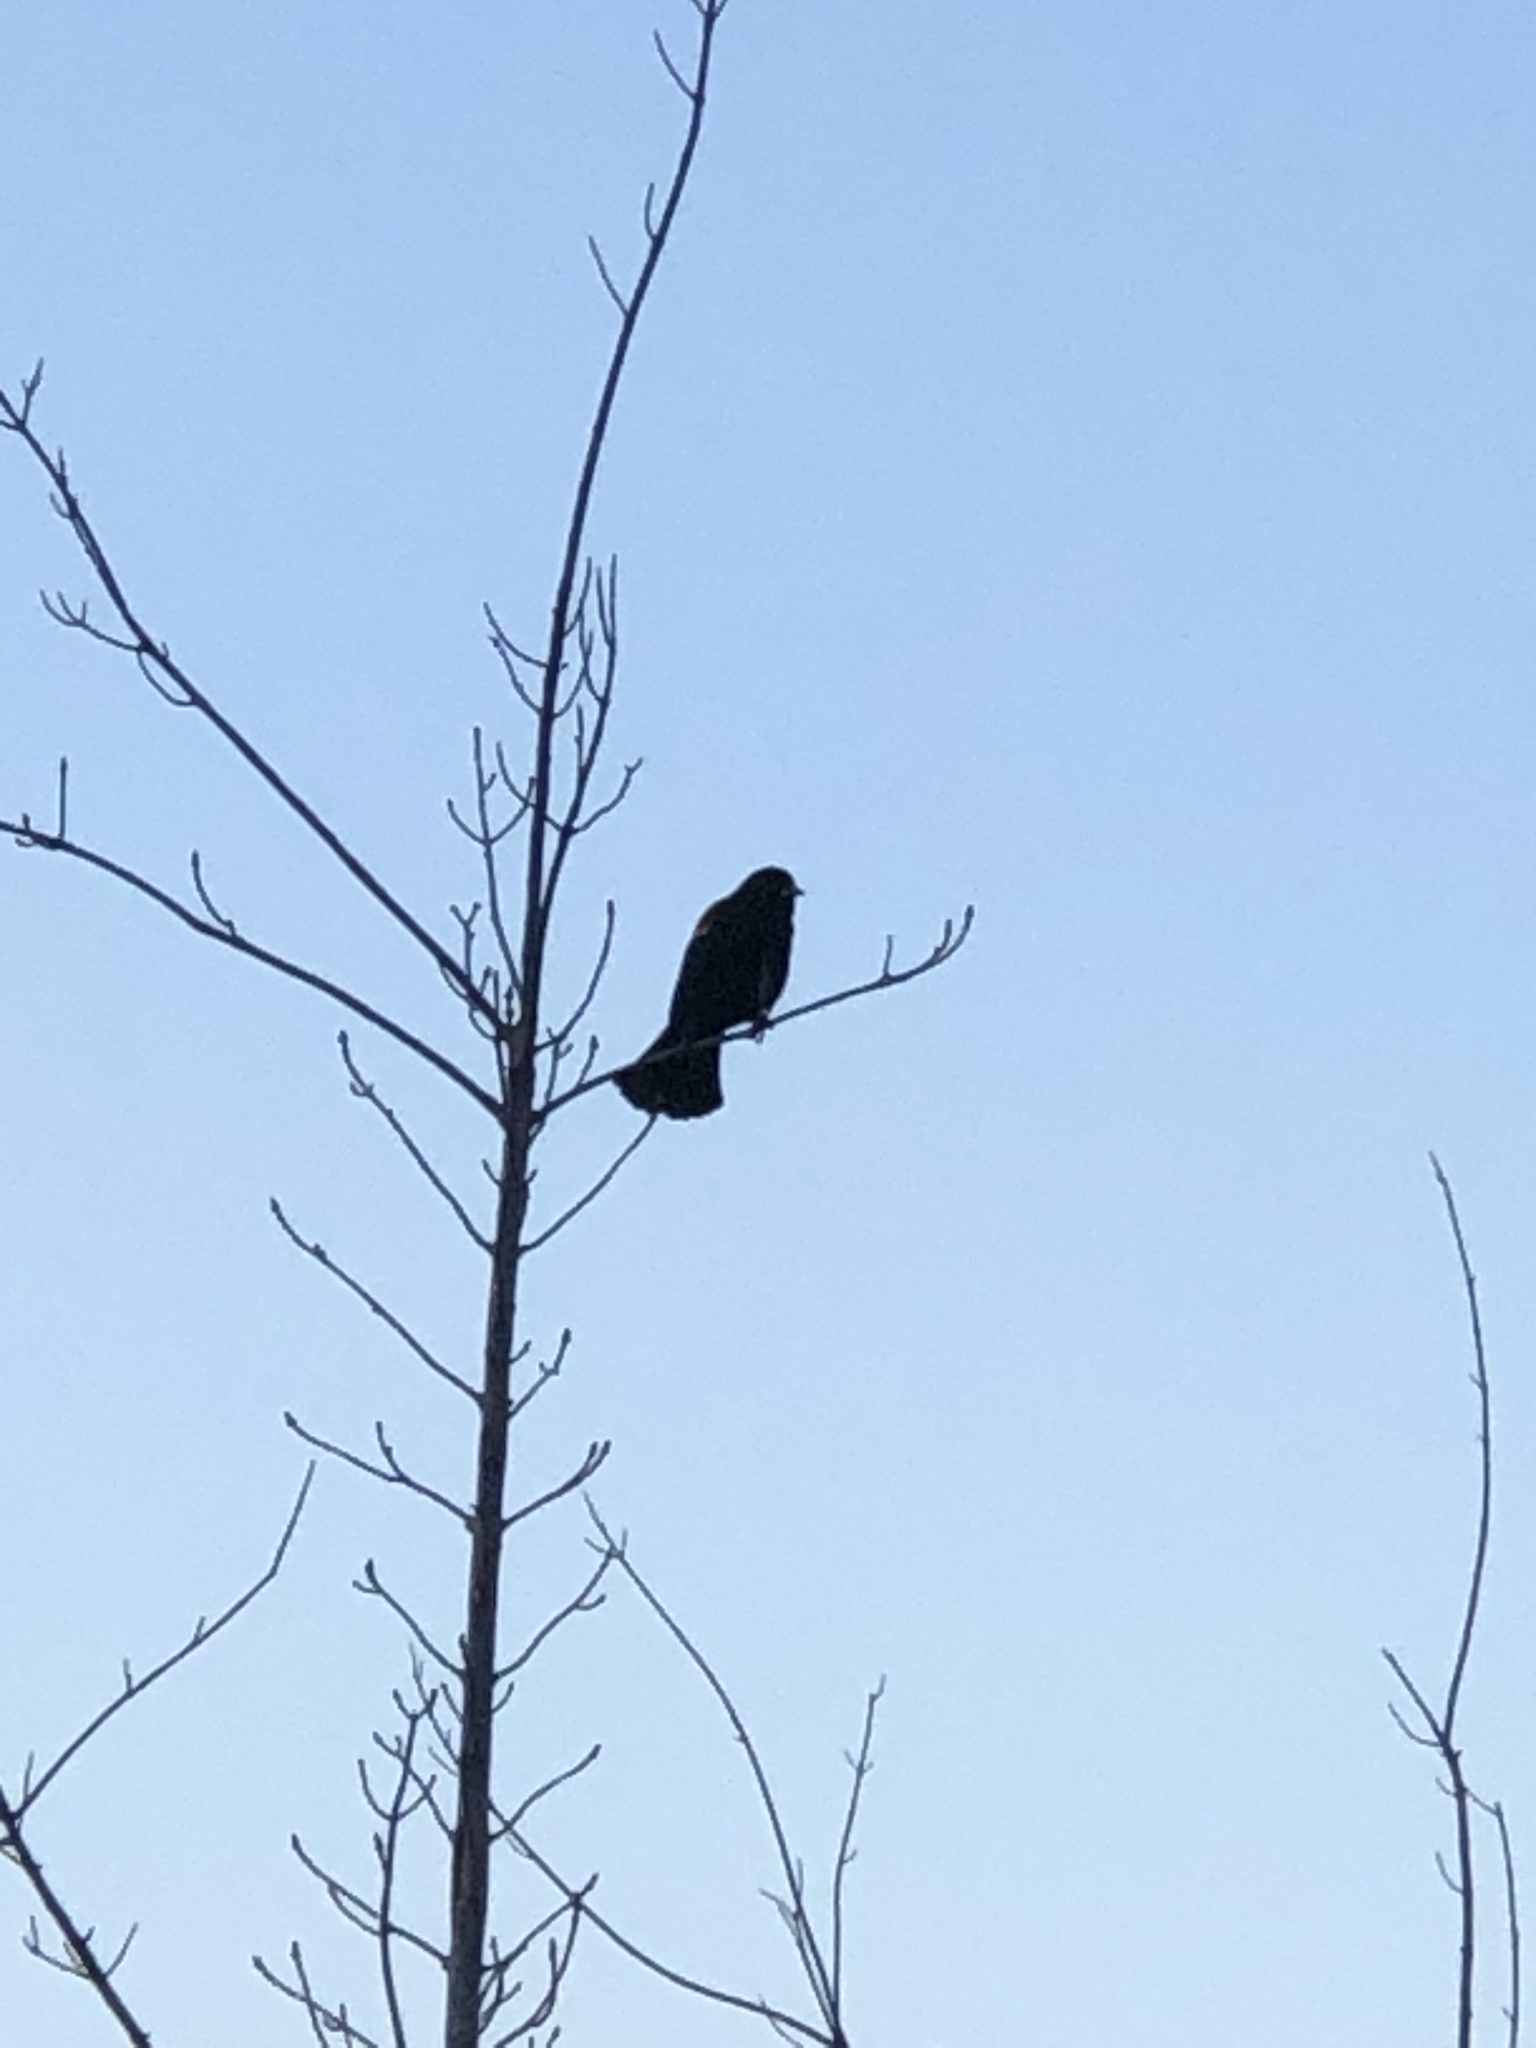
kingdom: Animalia
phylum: Chordata
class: Aves
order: Passeriformes
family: Icteridae
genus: Agelaius
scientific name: Agelaius phoeniceus
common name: Red-winged blackbird
